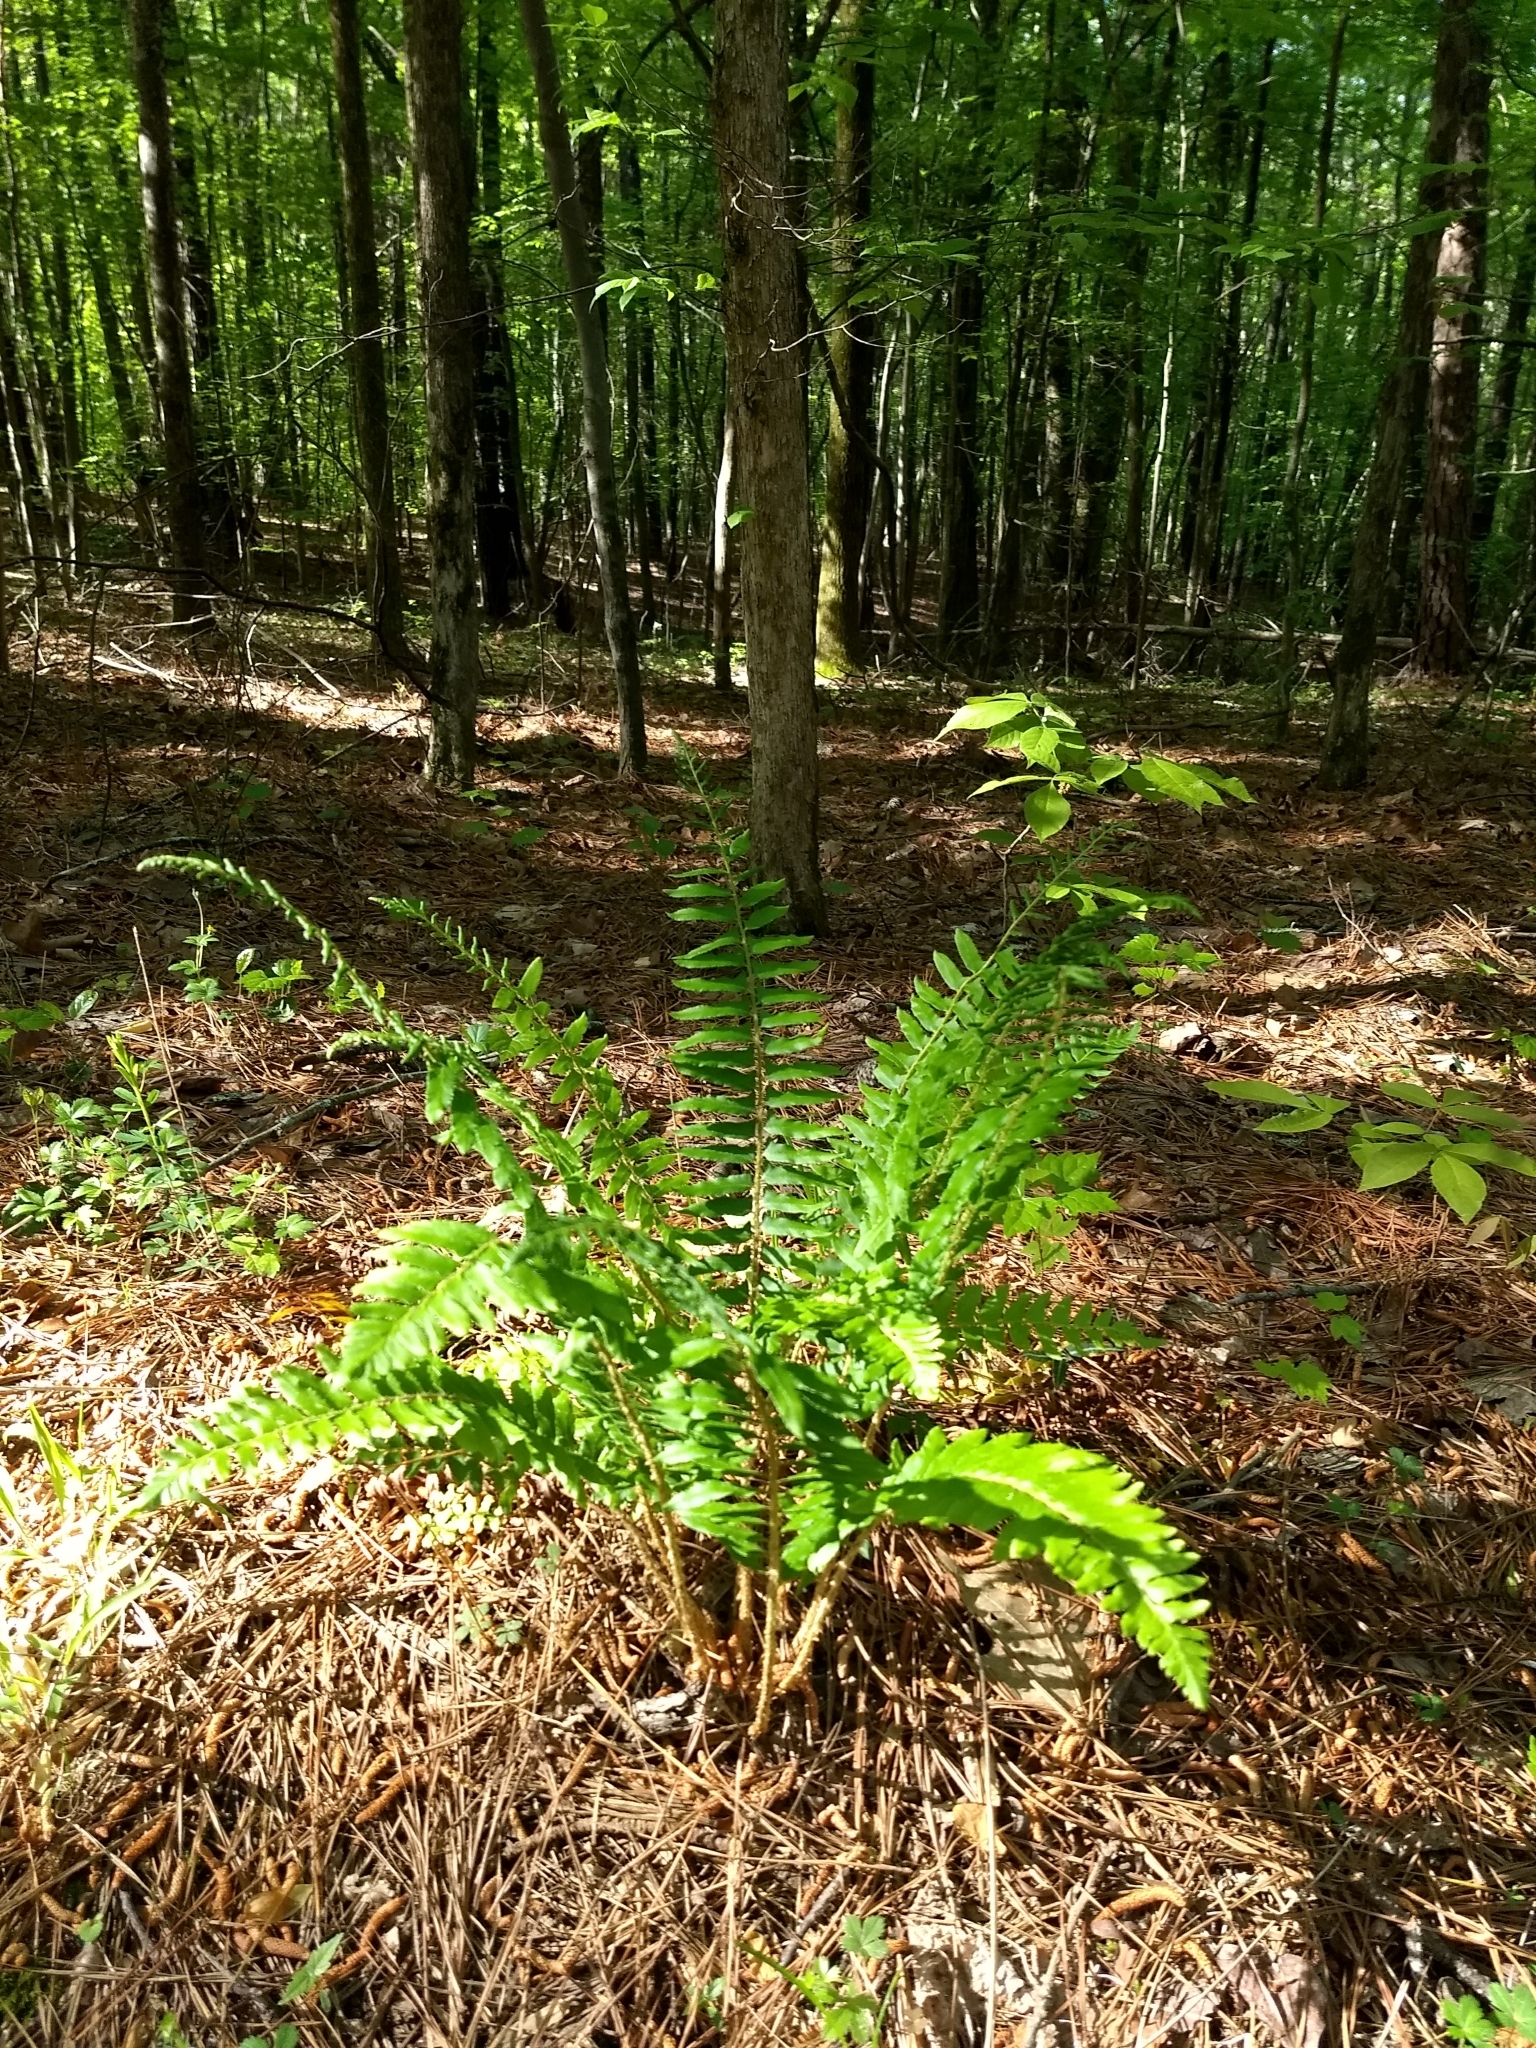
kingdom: Plantae
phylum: Tracheophyta
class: Polypodiopsida
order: Polypodiales
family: Dryopteridaceae
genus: Polystichum
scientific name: Polystichum acrostichoides
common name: Christmas fern
